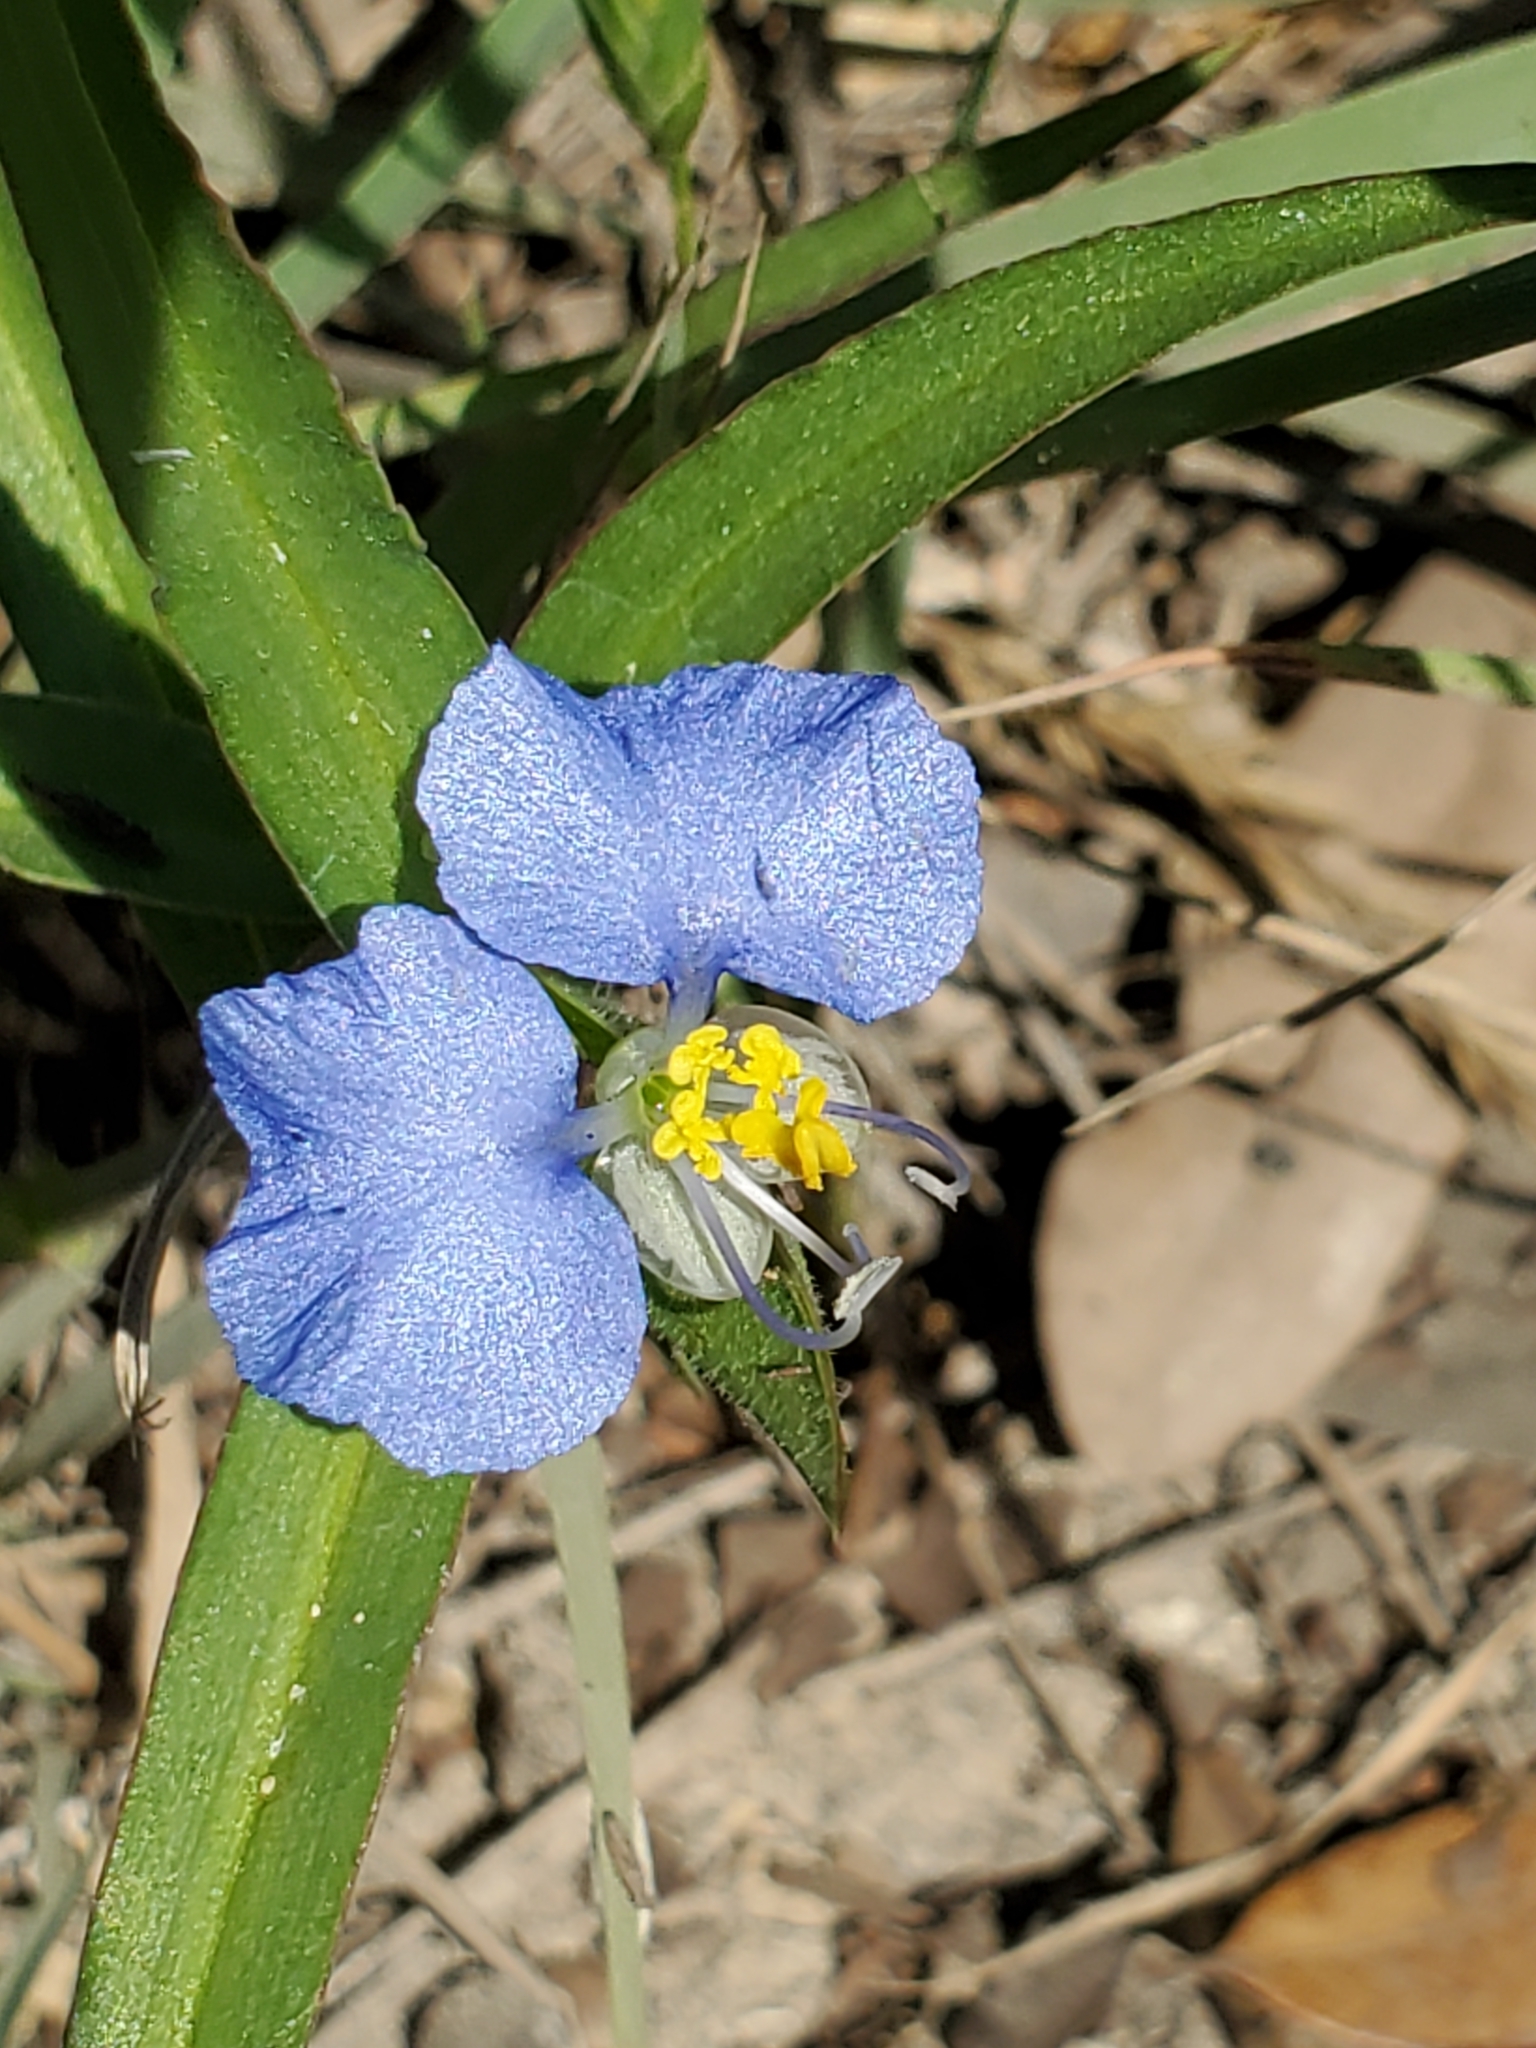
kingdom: Plantae
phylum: Tracheophyta
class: Liliopsida
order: Commelinales
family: Commelinaceae
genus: Commelina
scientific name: Commelina erecta
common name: Blousel blommetjie
